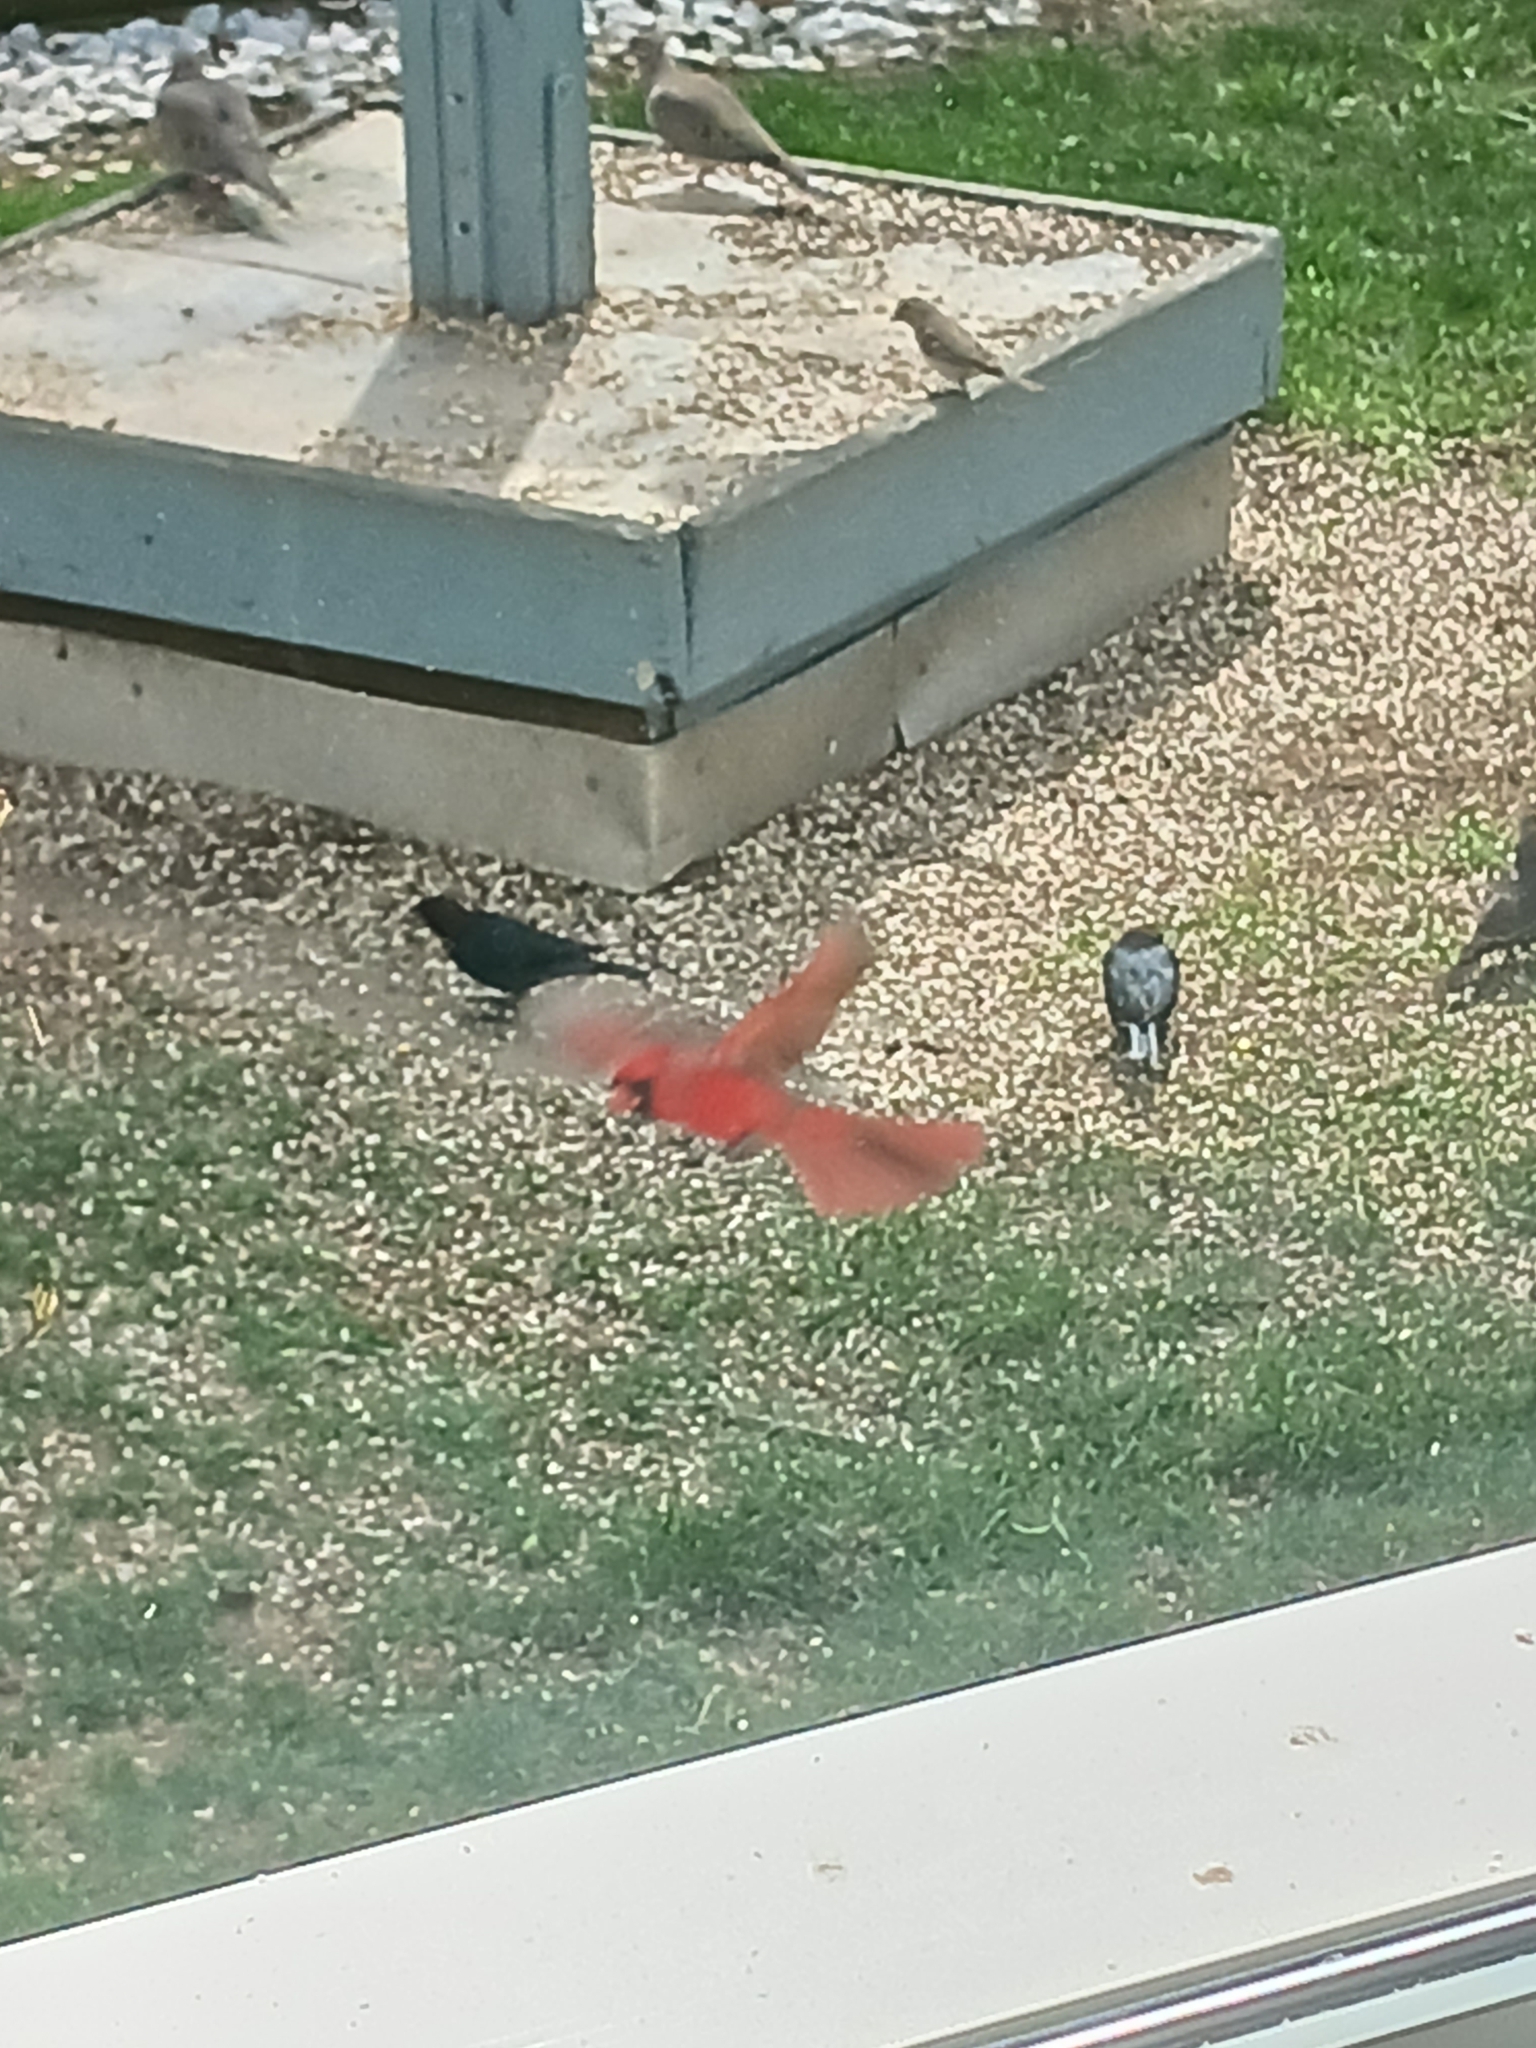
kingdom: Animalia
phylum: Chordata
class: Aves
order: Passeriformes
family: Icteridae
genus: Molothrus
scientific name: Molothrus ater
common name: Brown-headed cowbird
